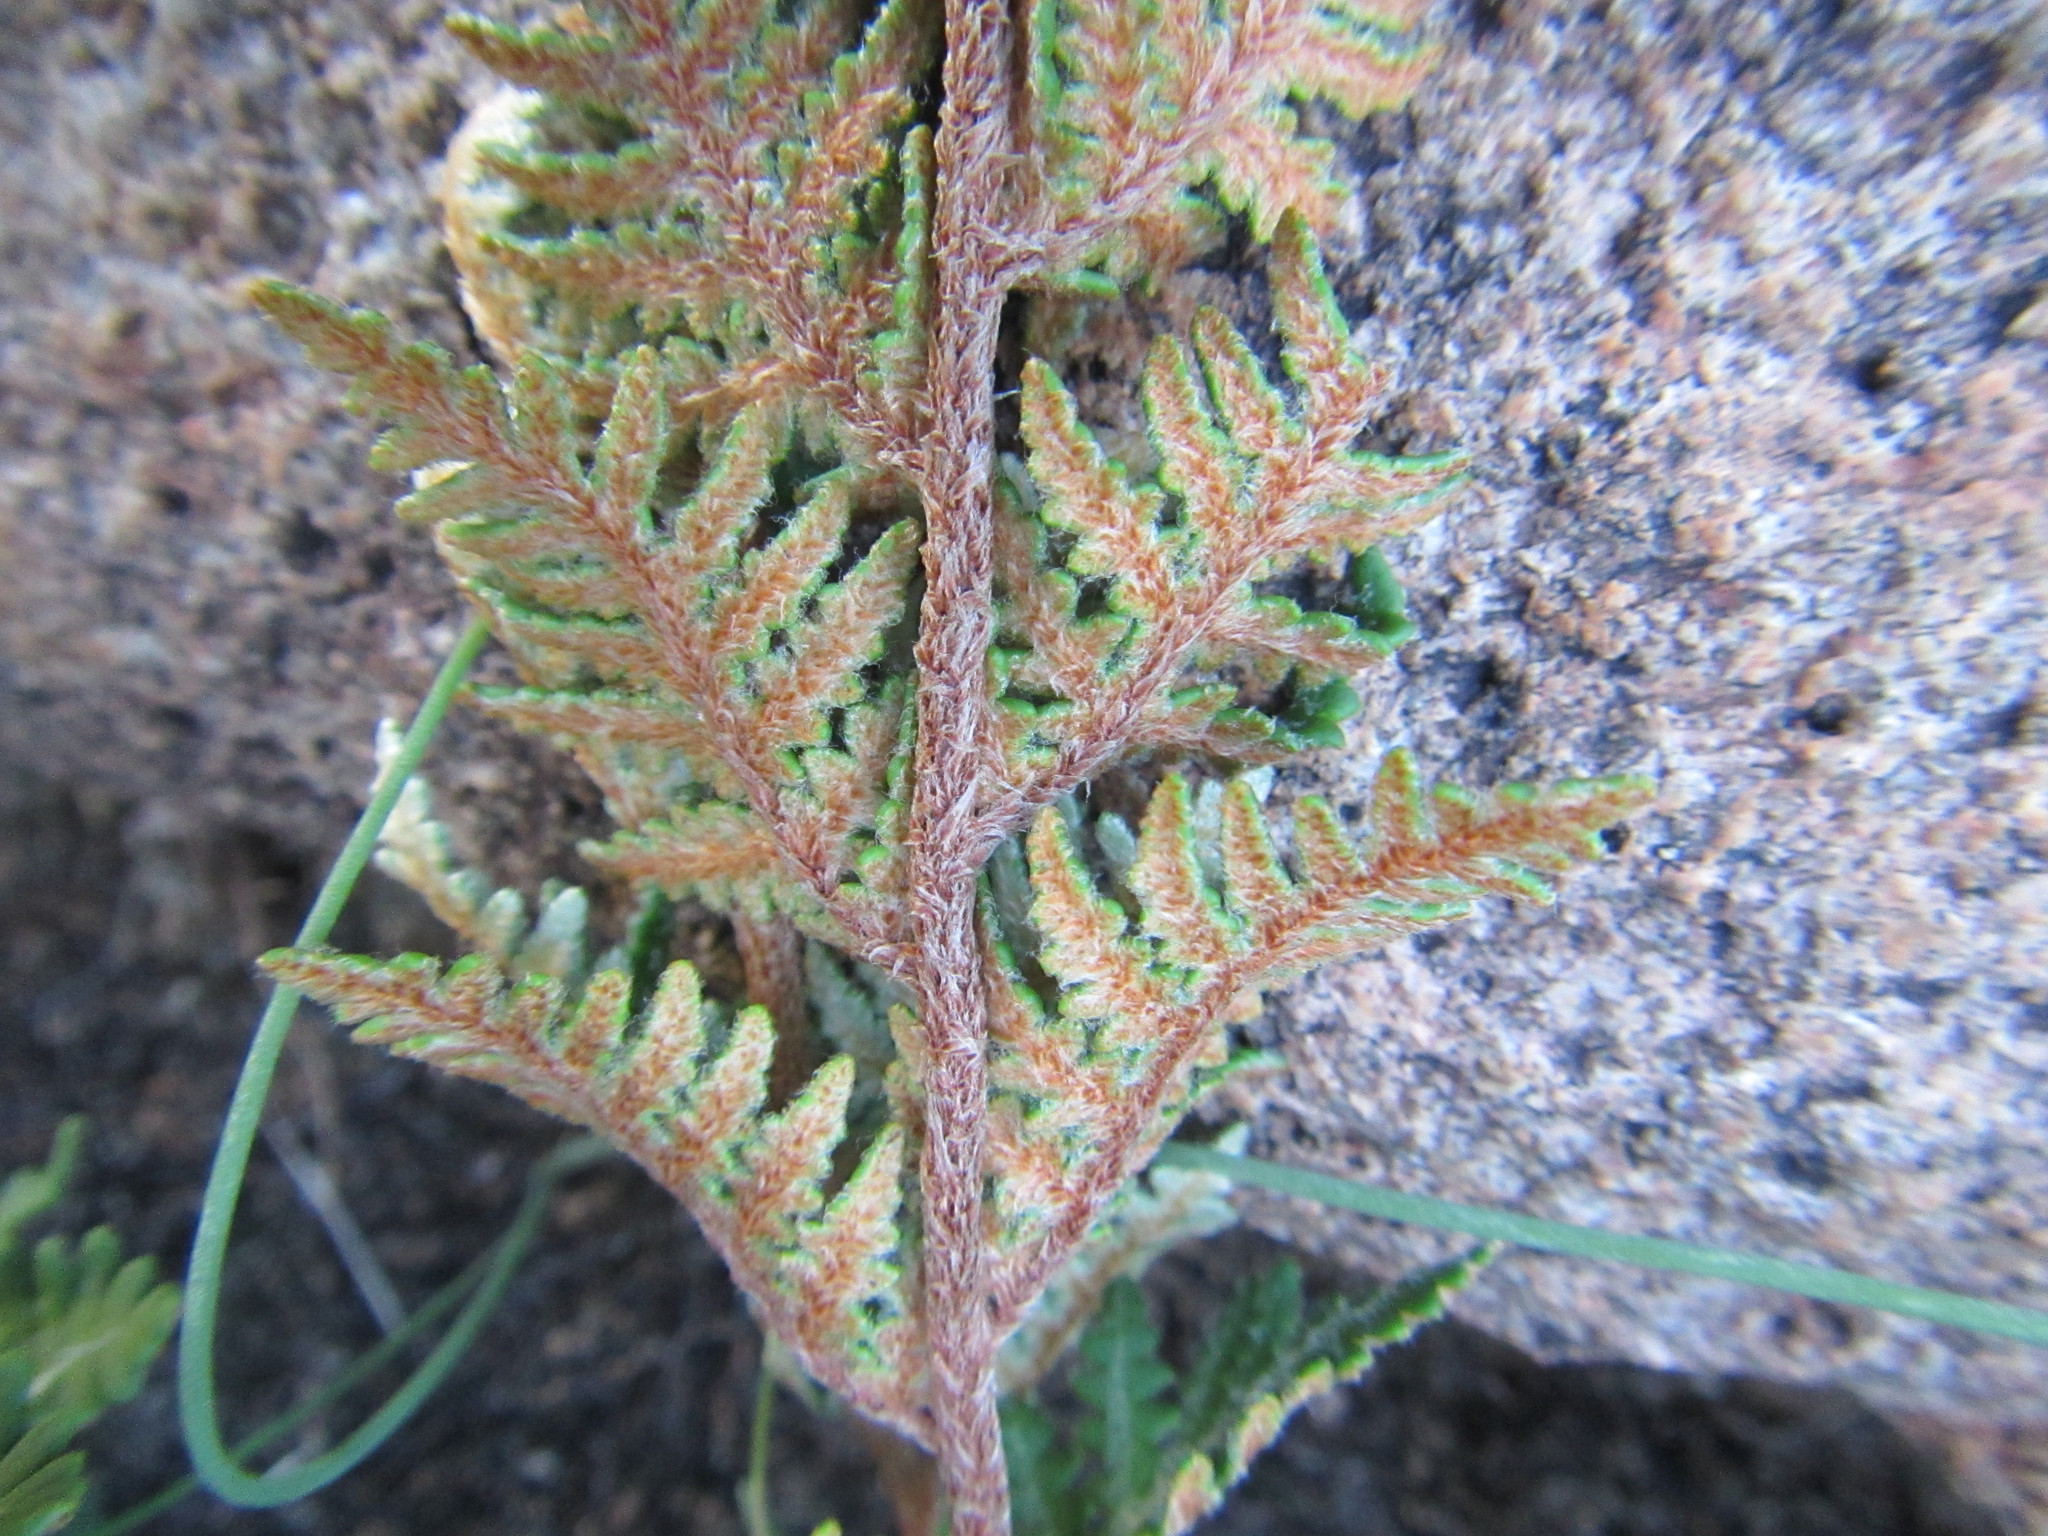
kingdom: Plantae
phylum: Tracheophyta
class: Polypodiopsida
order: Polypodiales
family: Pteridaceae
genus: Cheilanthes
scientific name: Cheilanthes eckloniana
